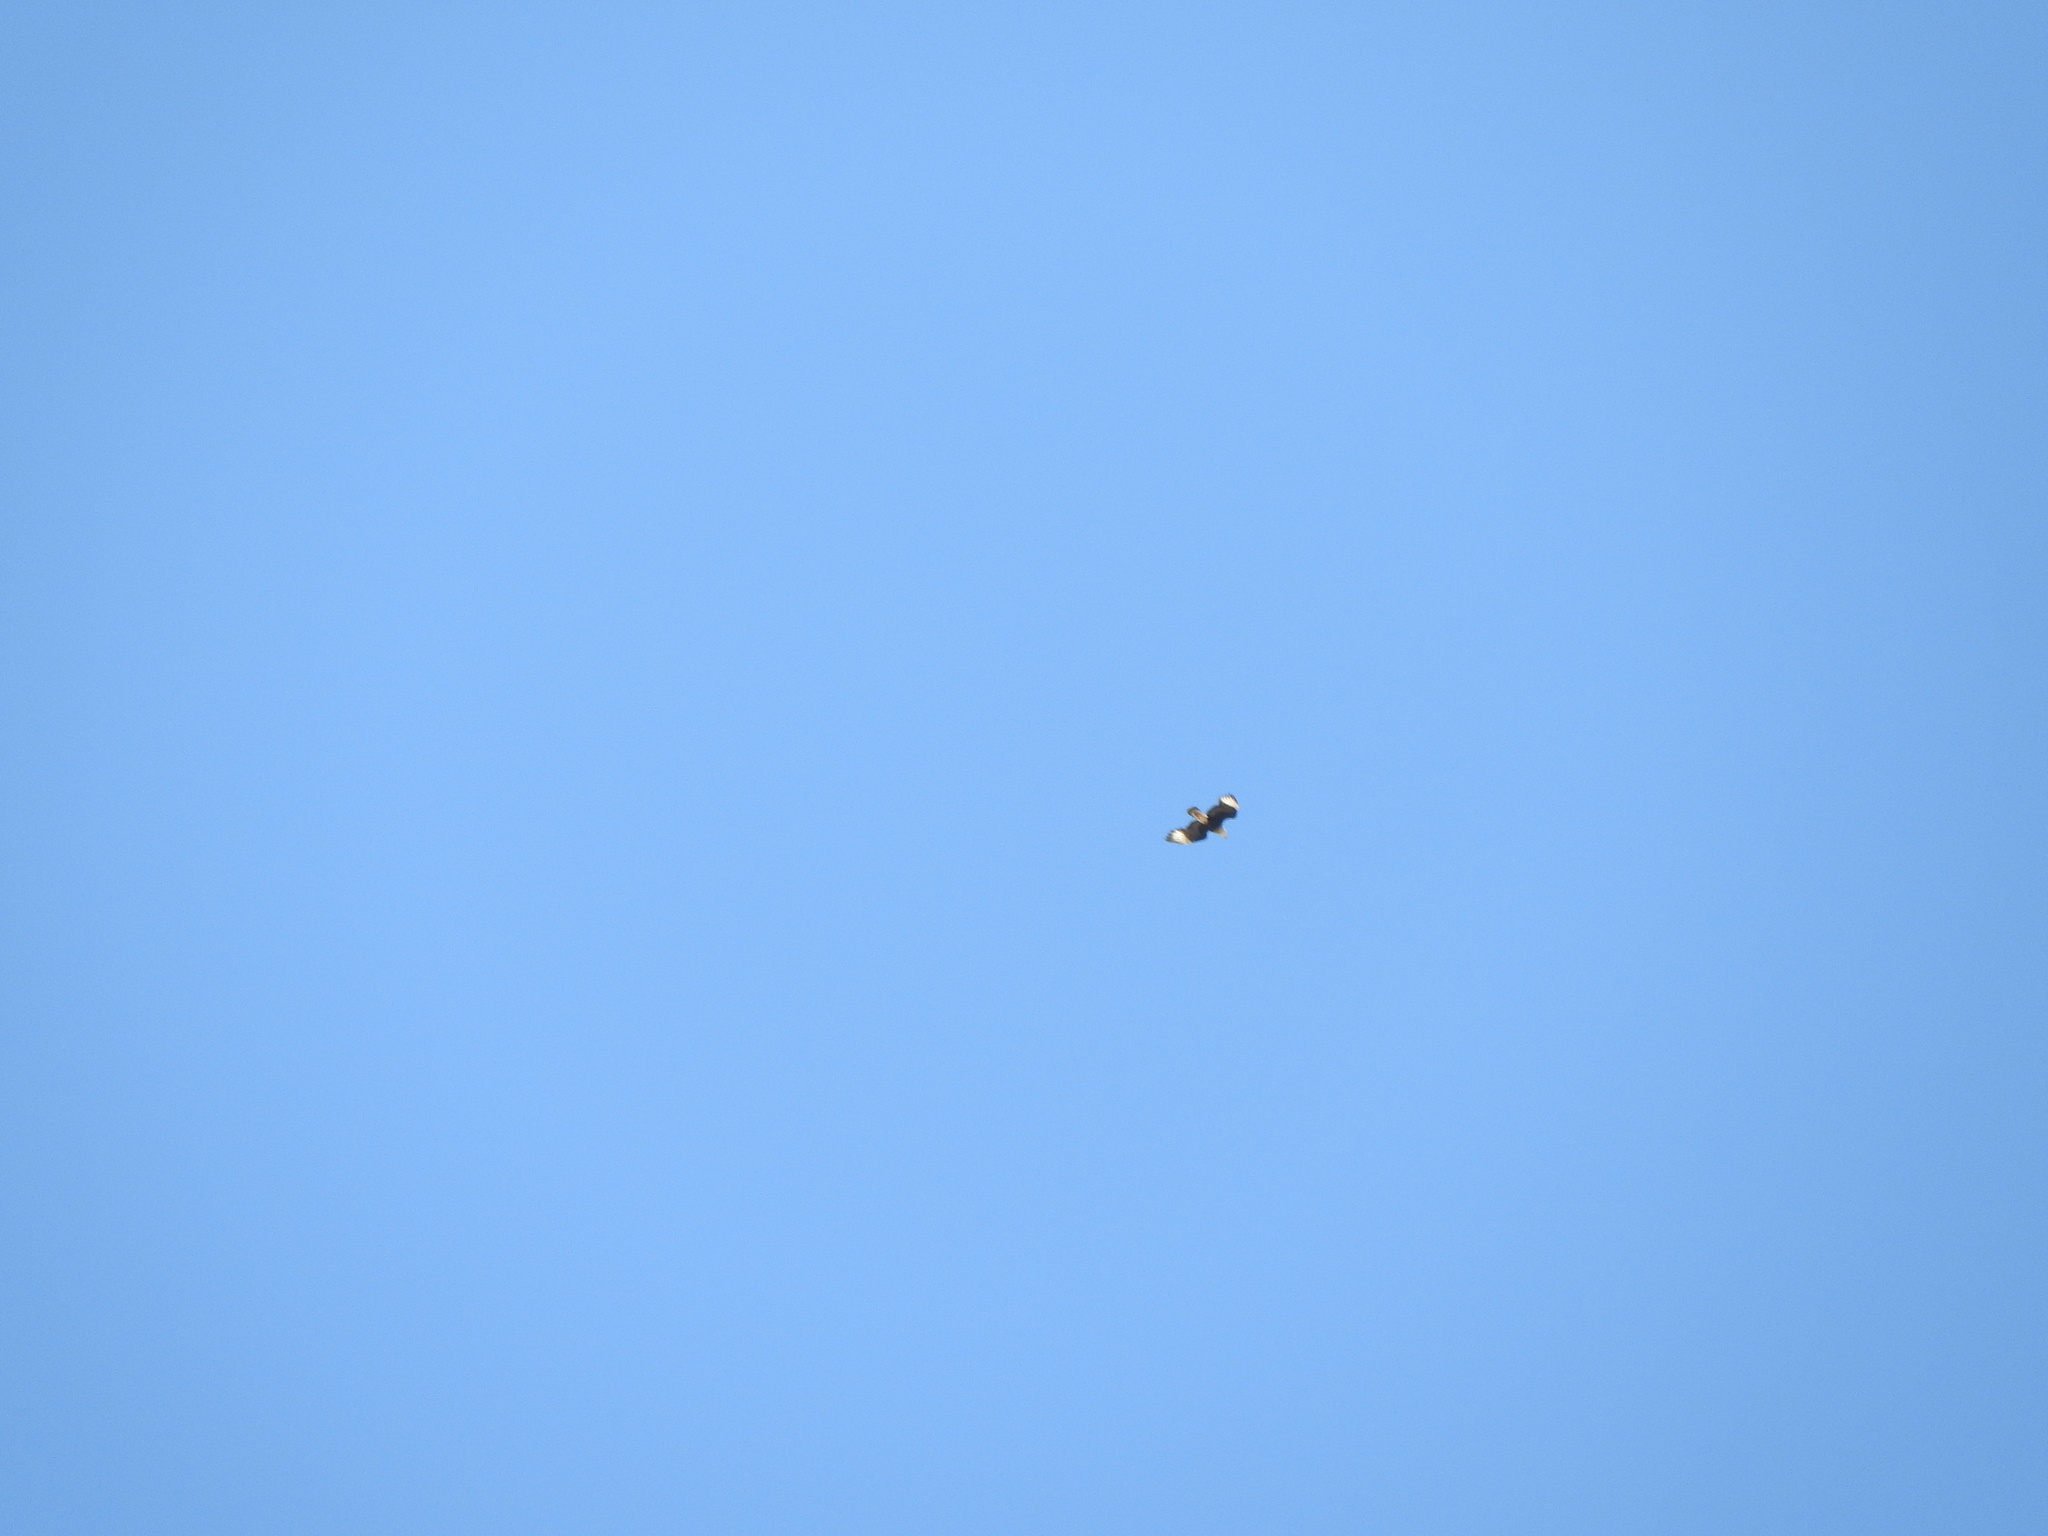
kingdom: Animalia
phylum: Chordata
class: Aves
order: Falconiformes
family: Falconidae
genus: Caracara
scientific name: Caracara plancus
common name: Southern caracara
